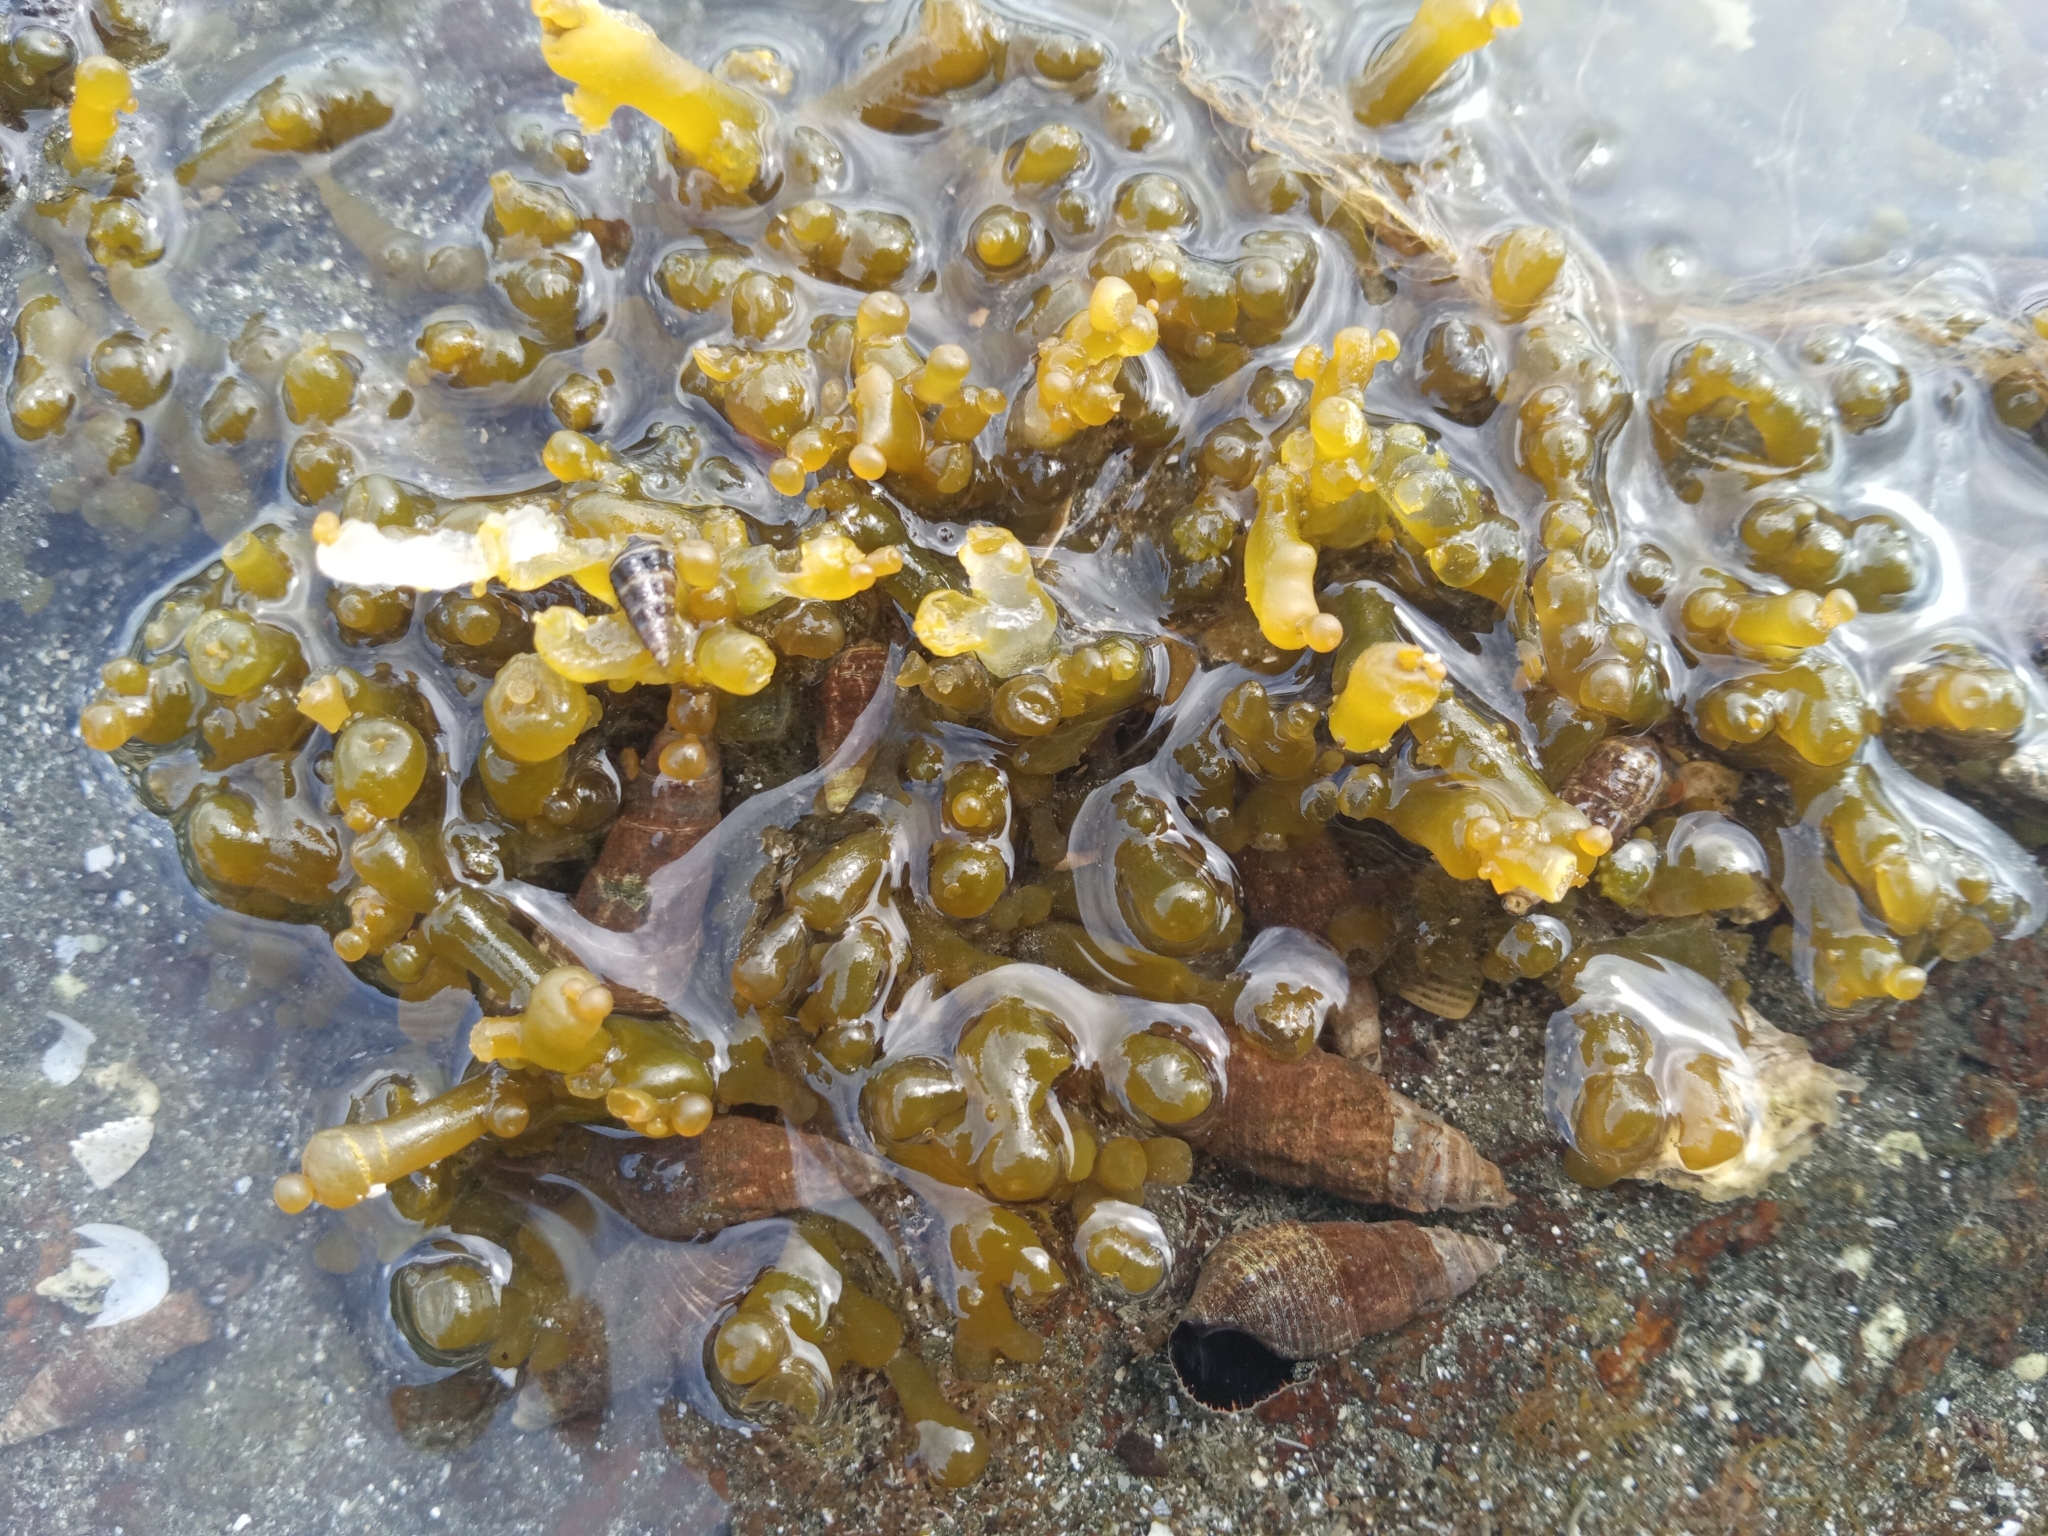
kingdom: Plantae
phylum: Rhodophyta
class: Florideophyceae
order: Gracilariales
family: Gracilariaceae
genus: Gracilaria
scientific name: Gracilaria salicornia
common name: Red algae
